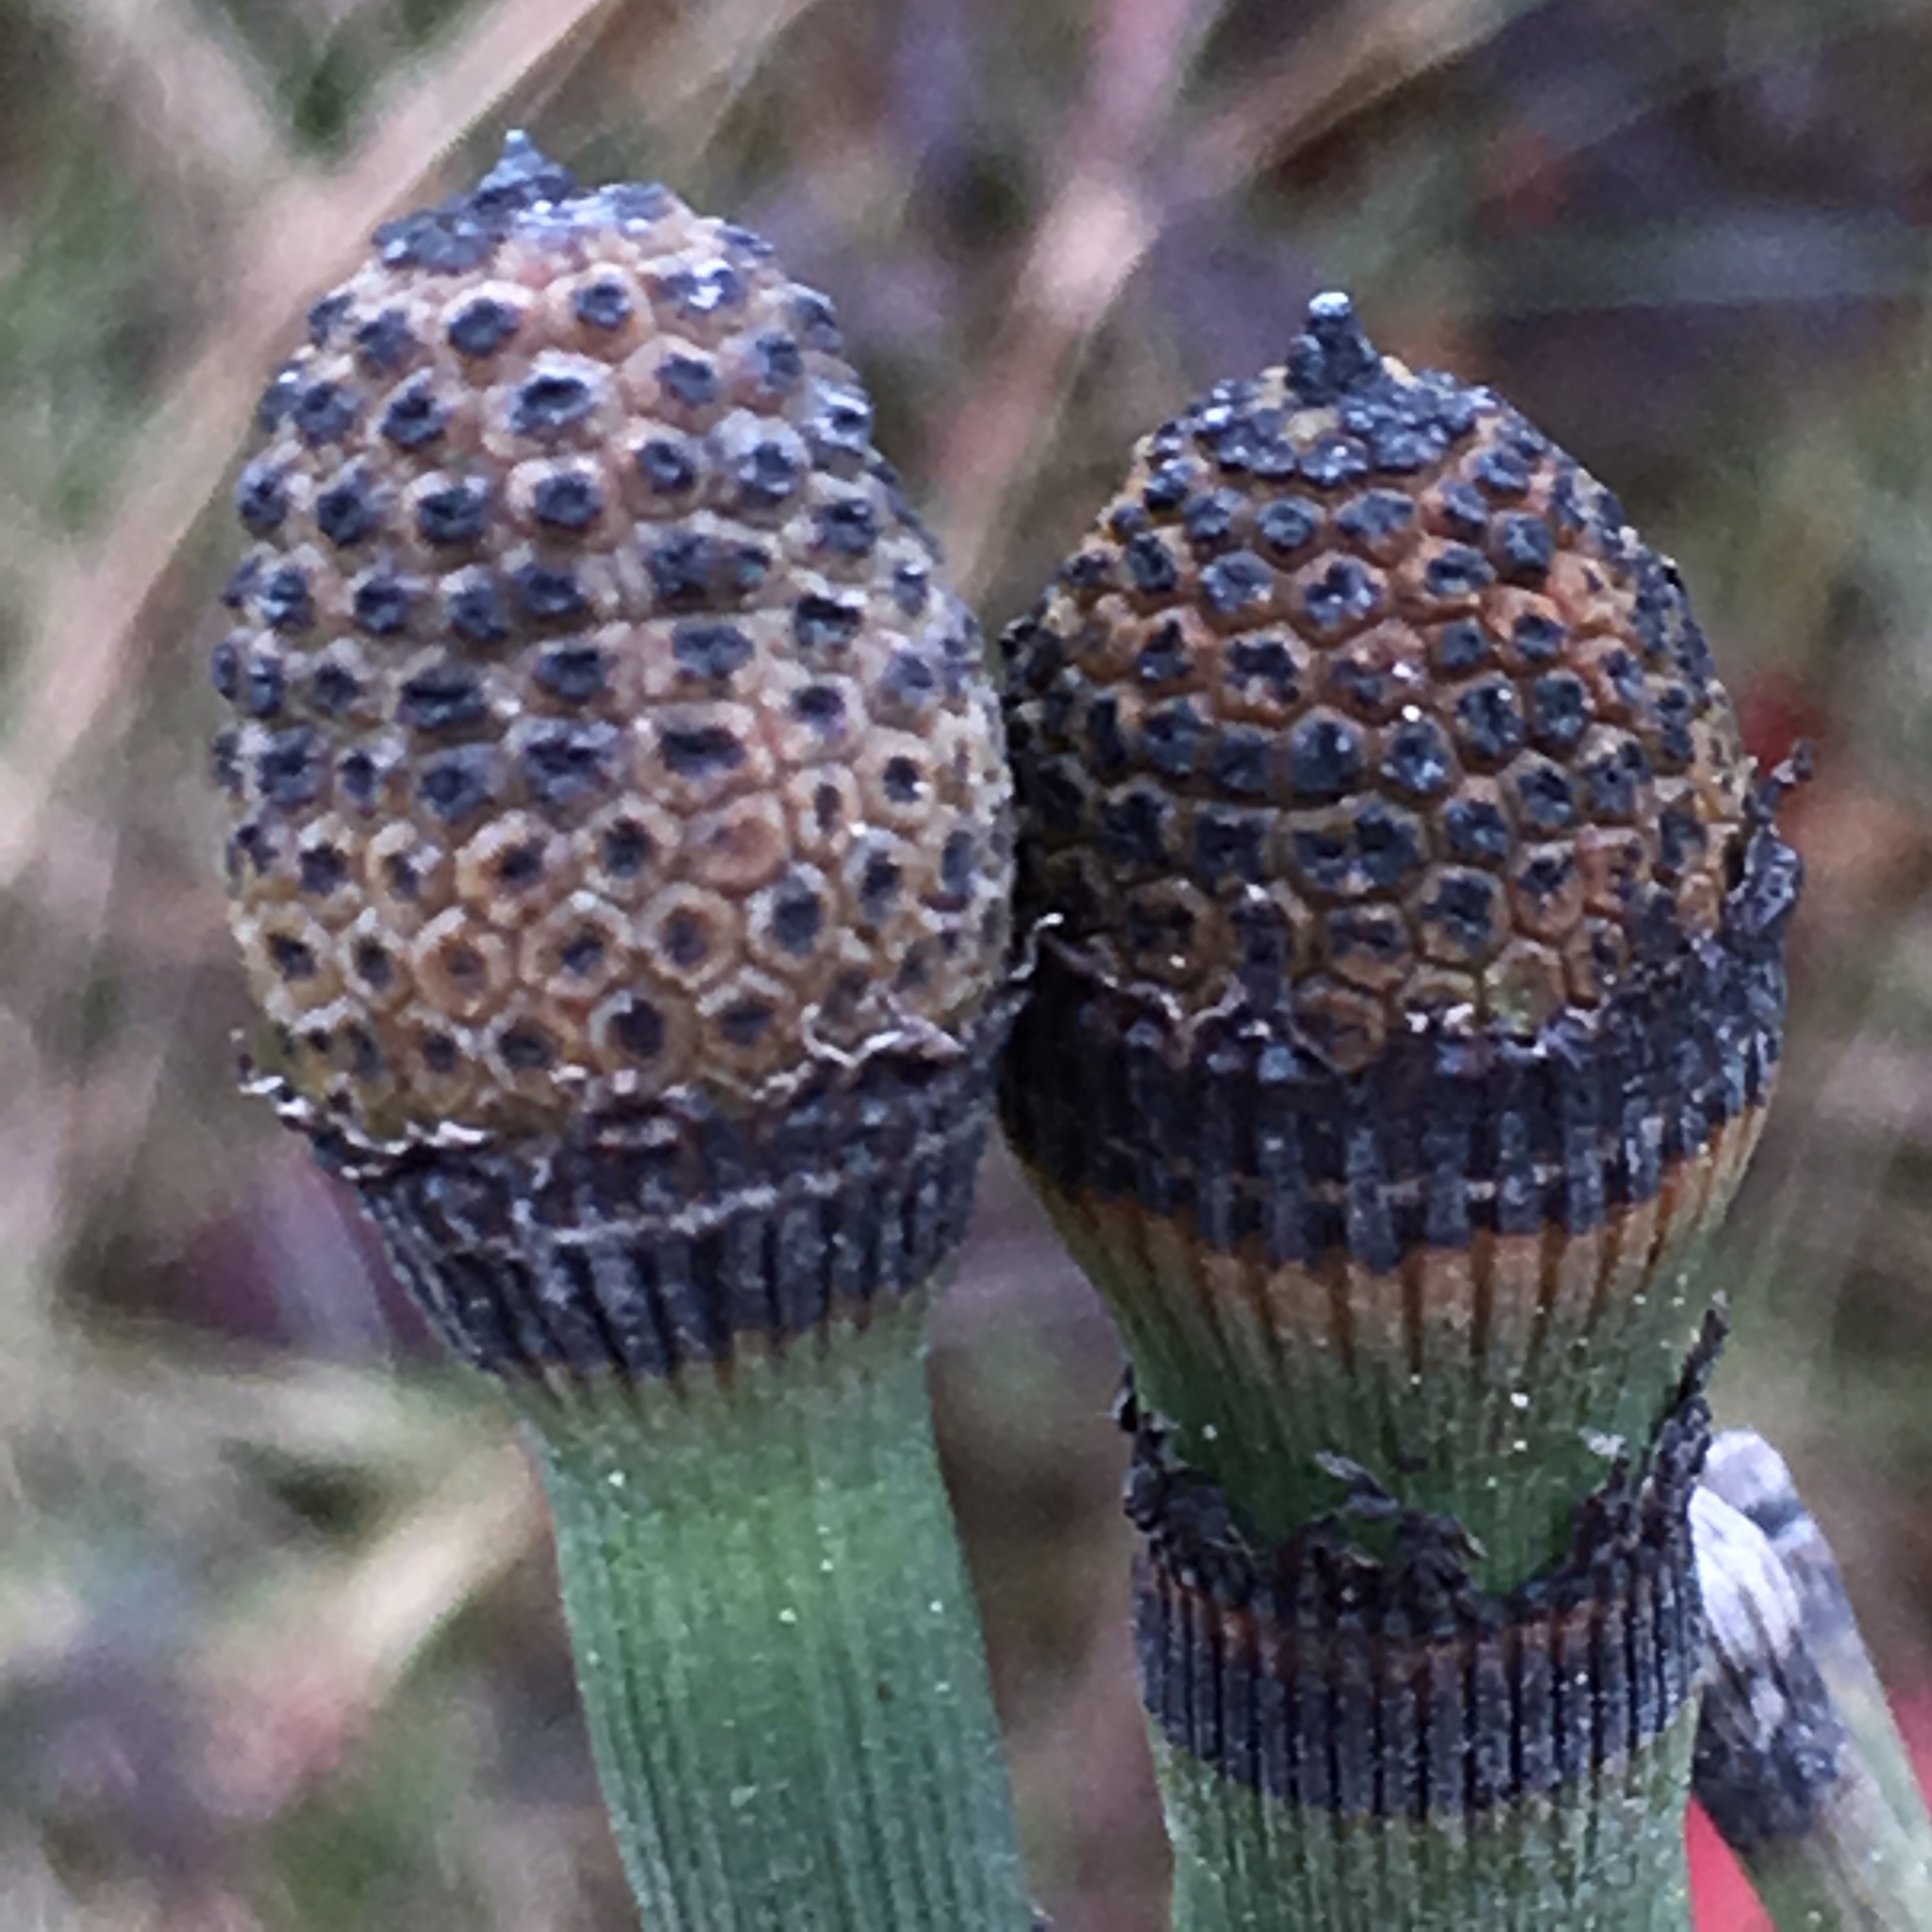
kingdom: Plantae
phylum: Tracheophyta
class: Polypodiopsida
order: Equisetales
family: Equisetaceae
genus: Equisetum
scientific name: Equisetum hyemale
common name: Rough horsetail
